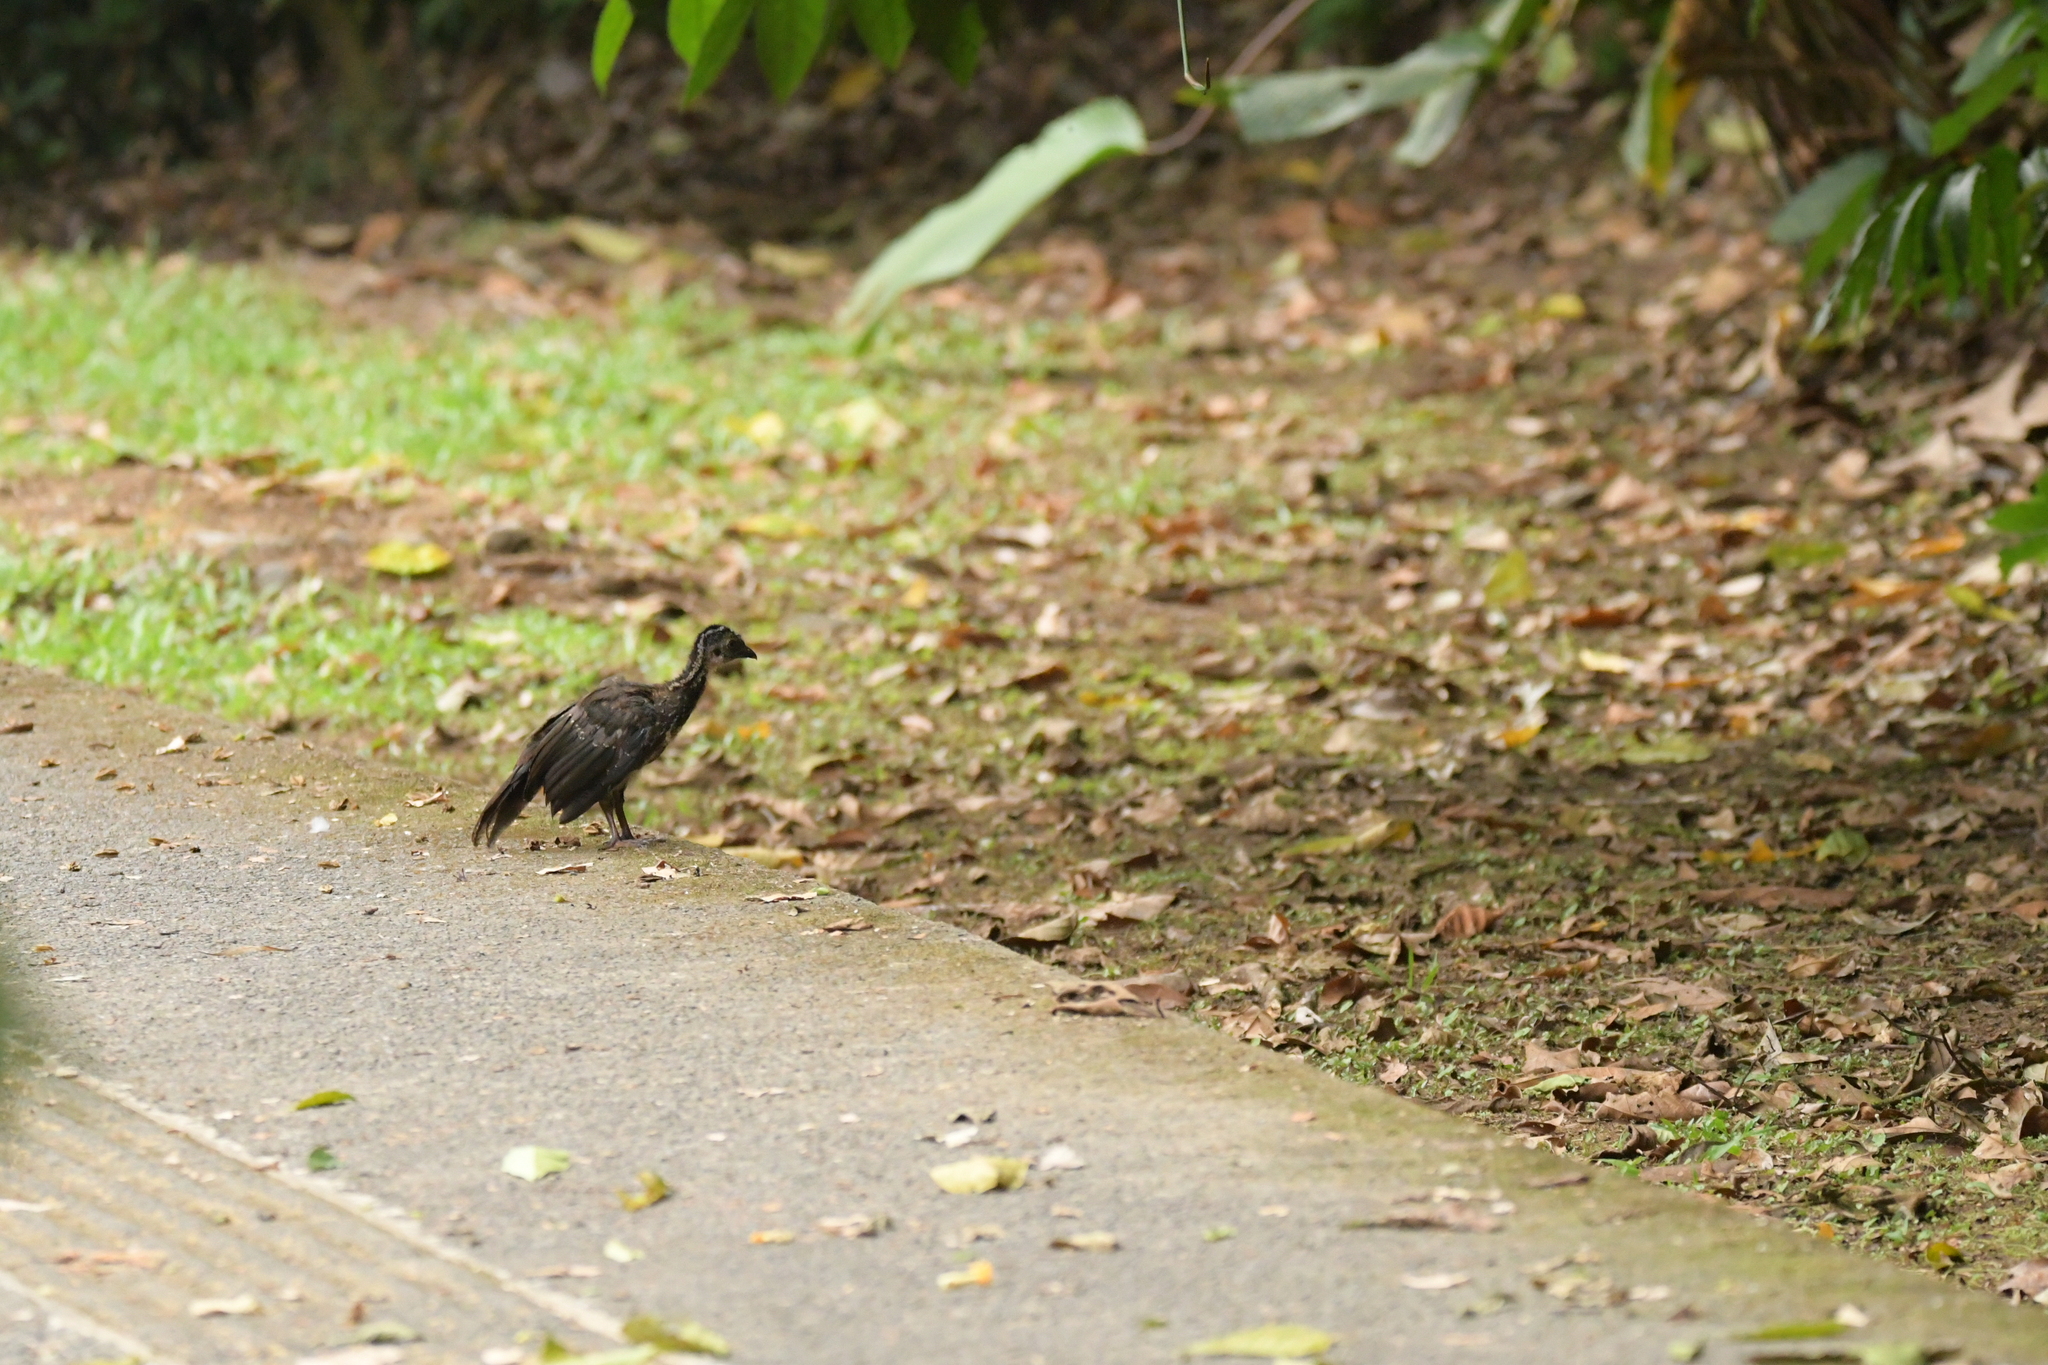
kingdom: Animalia
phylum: Chordata
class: Aves
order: Galliformes
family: Cracidae
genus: Penelope
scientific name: Penelope purpurascens
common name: Crested guan
